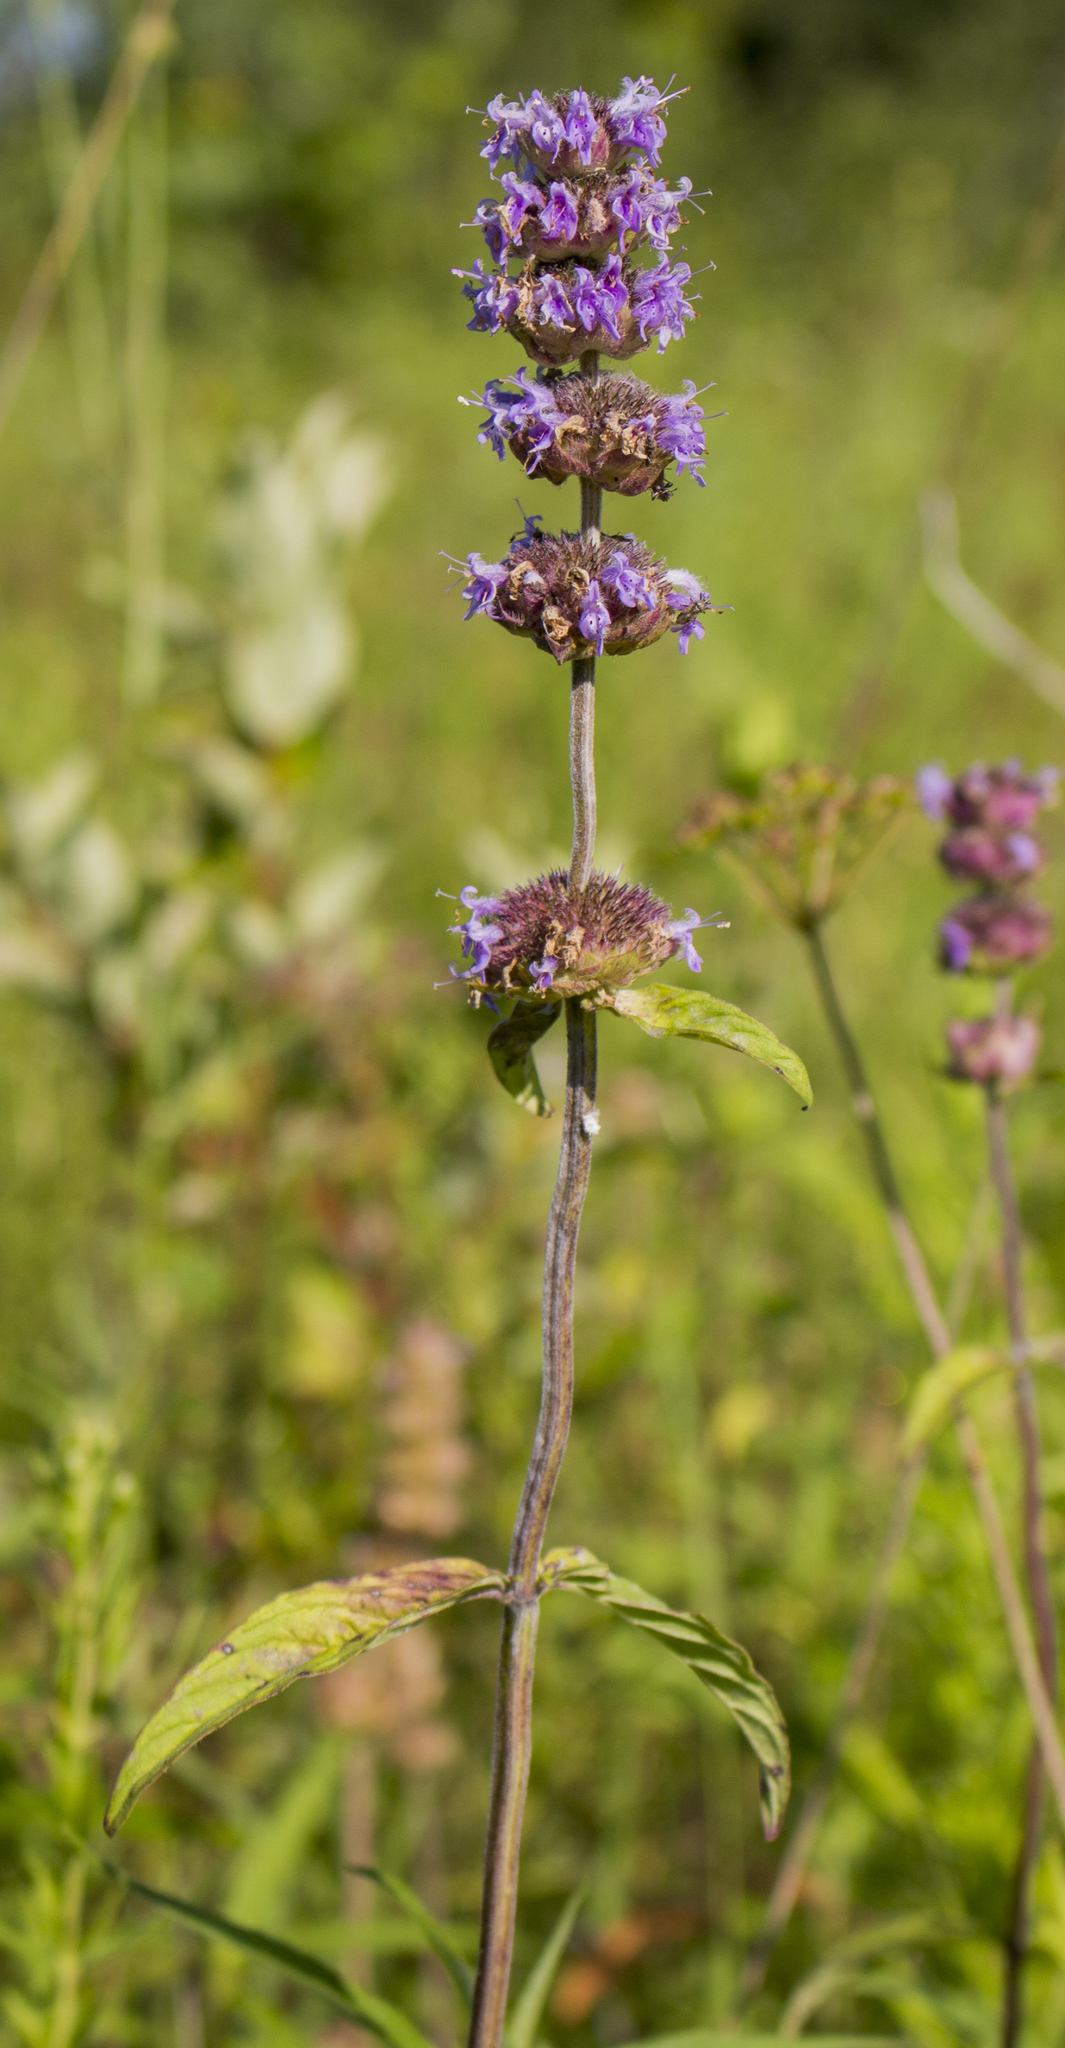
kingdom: Plantae
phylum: Tracheophyta
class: Magnoliopsida
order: Lamiales
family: Lamiaceae
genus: Blephilia
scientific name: Blephilia ciliata
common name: Downy blephilia
